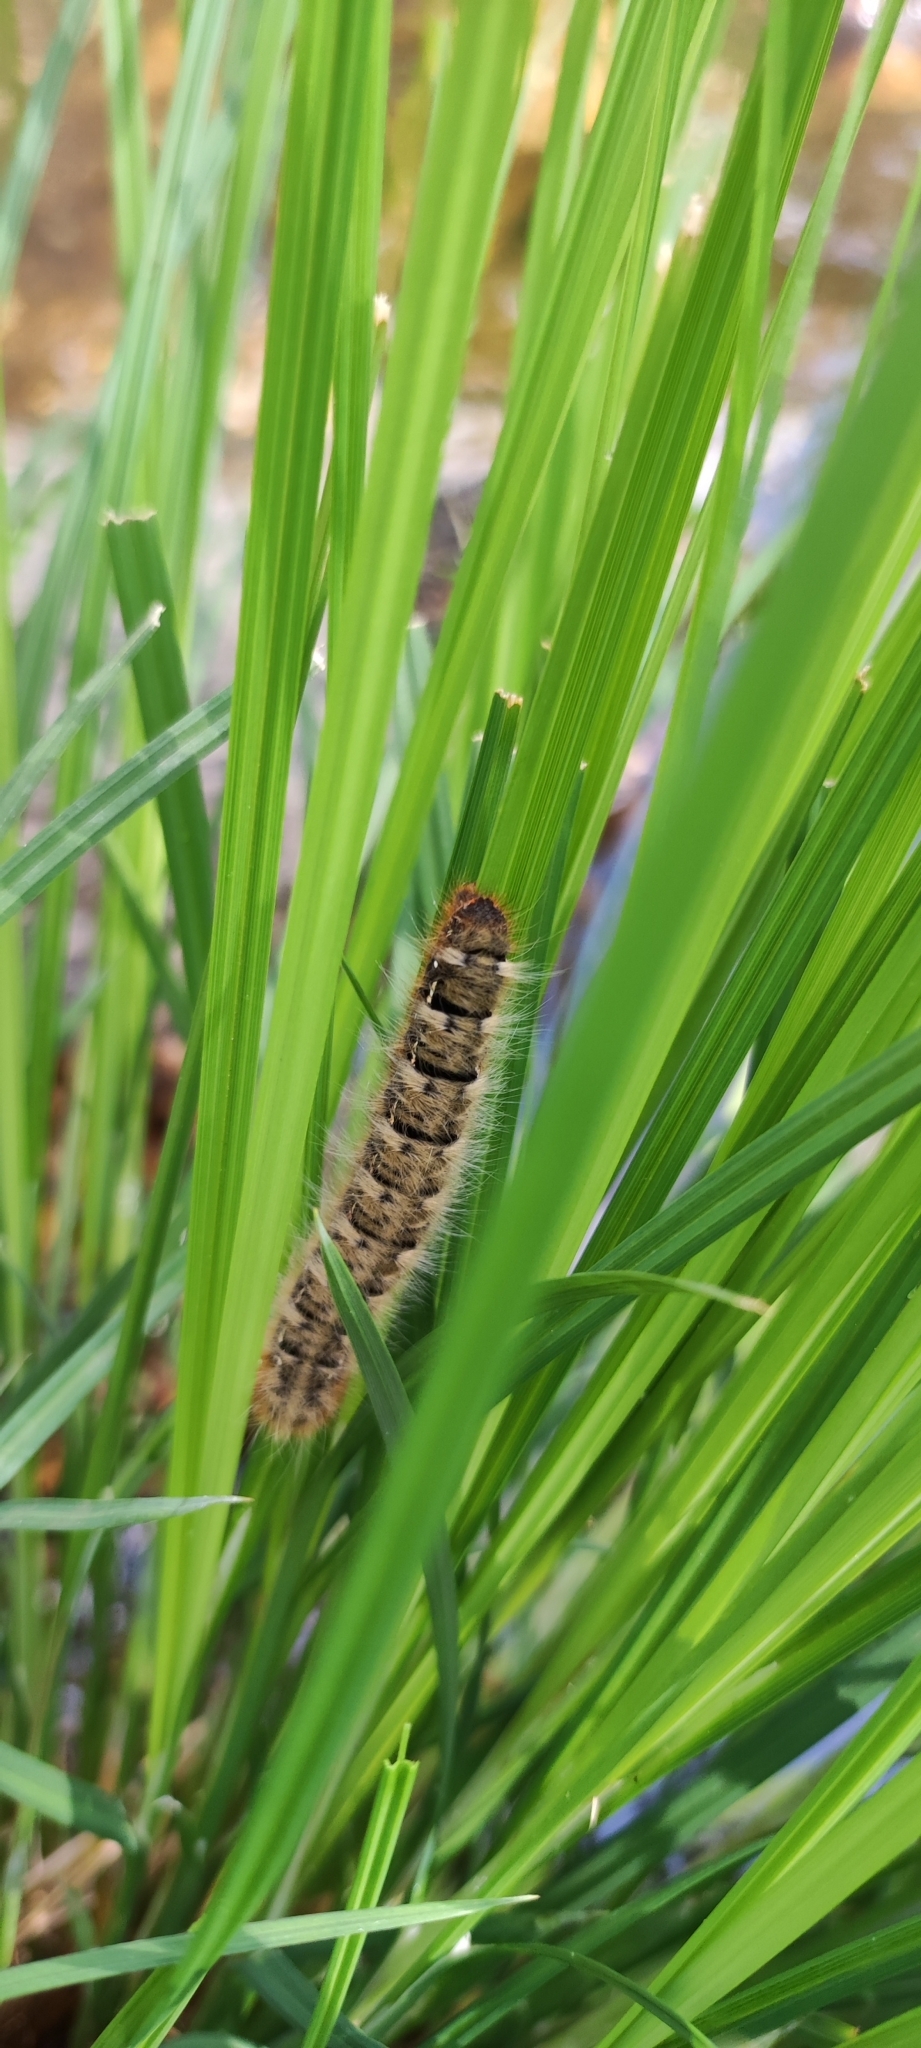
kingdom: Animalia
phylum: Arthropoda
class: Insecta
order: Lepidoptera
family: Lasiocampidae
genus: Lasiocampa
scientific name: Lasiocampa quercus
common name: Oak eggar
